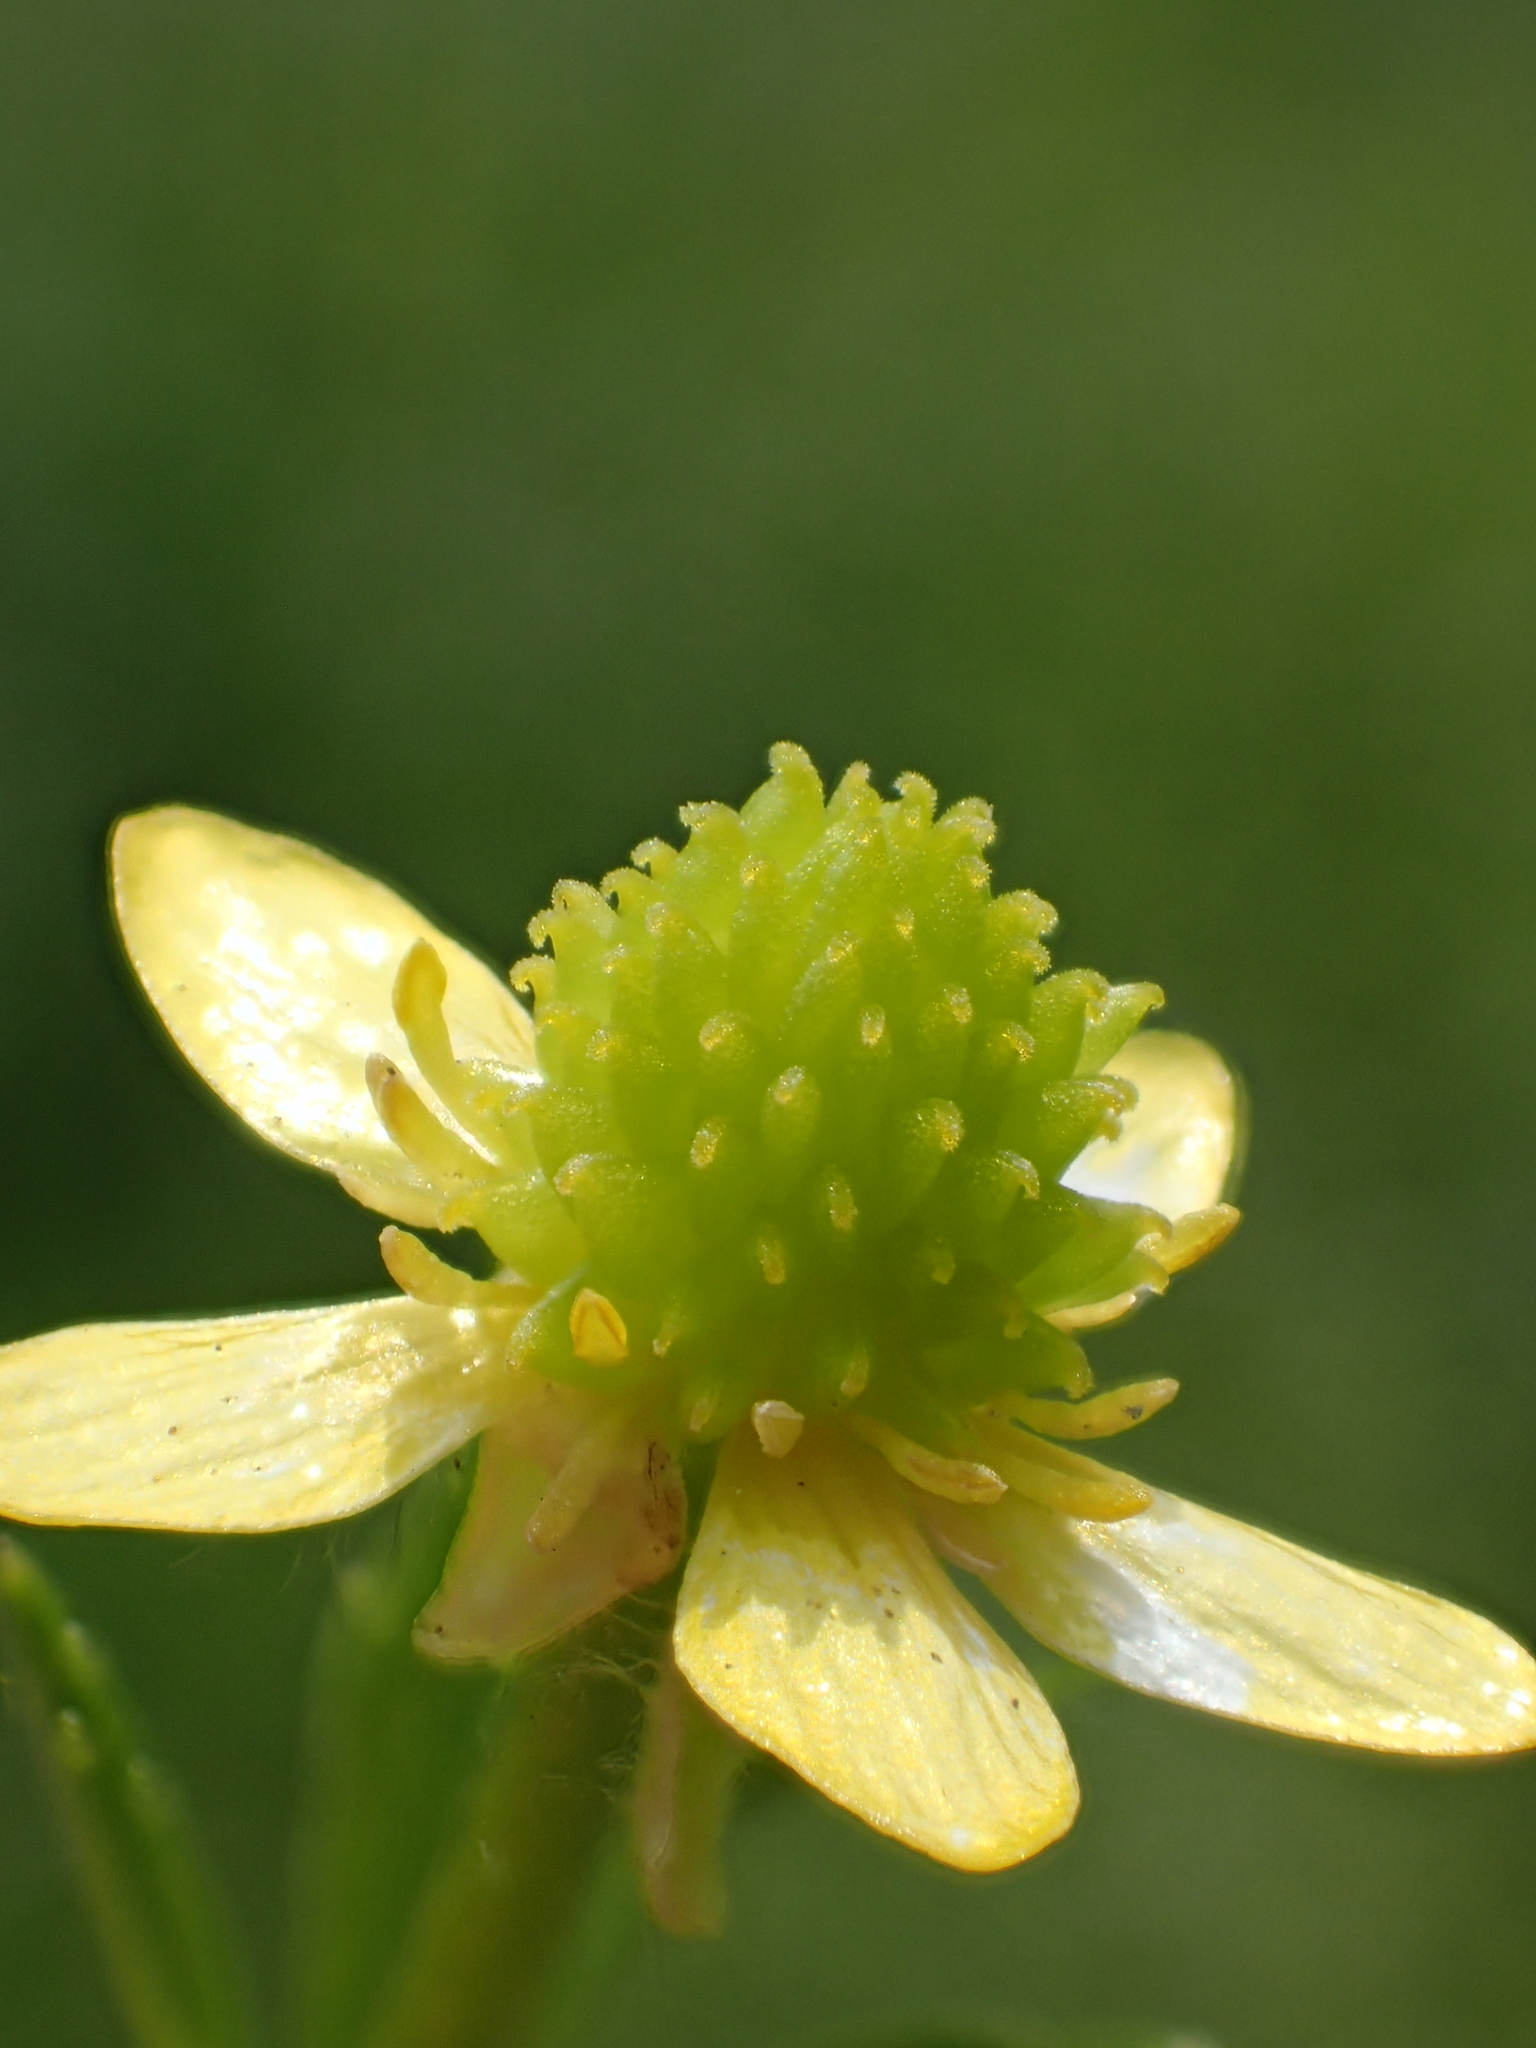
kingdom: Plantae
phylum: Tracheophyta
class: Magnoliopsida
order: Ranunculales
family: Ranunculaceae
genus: Ranunculus
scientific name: Ranunculus cantoniensis
